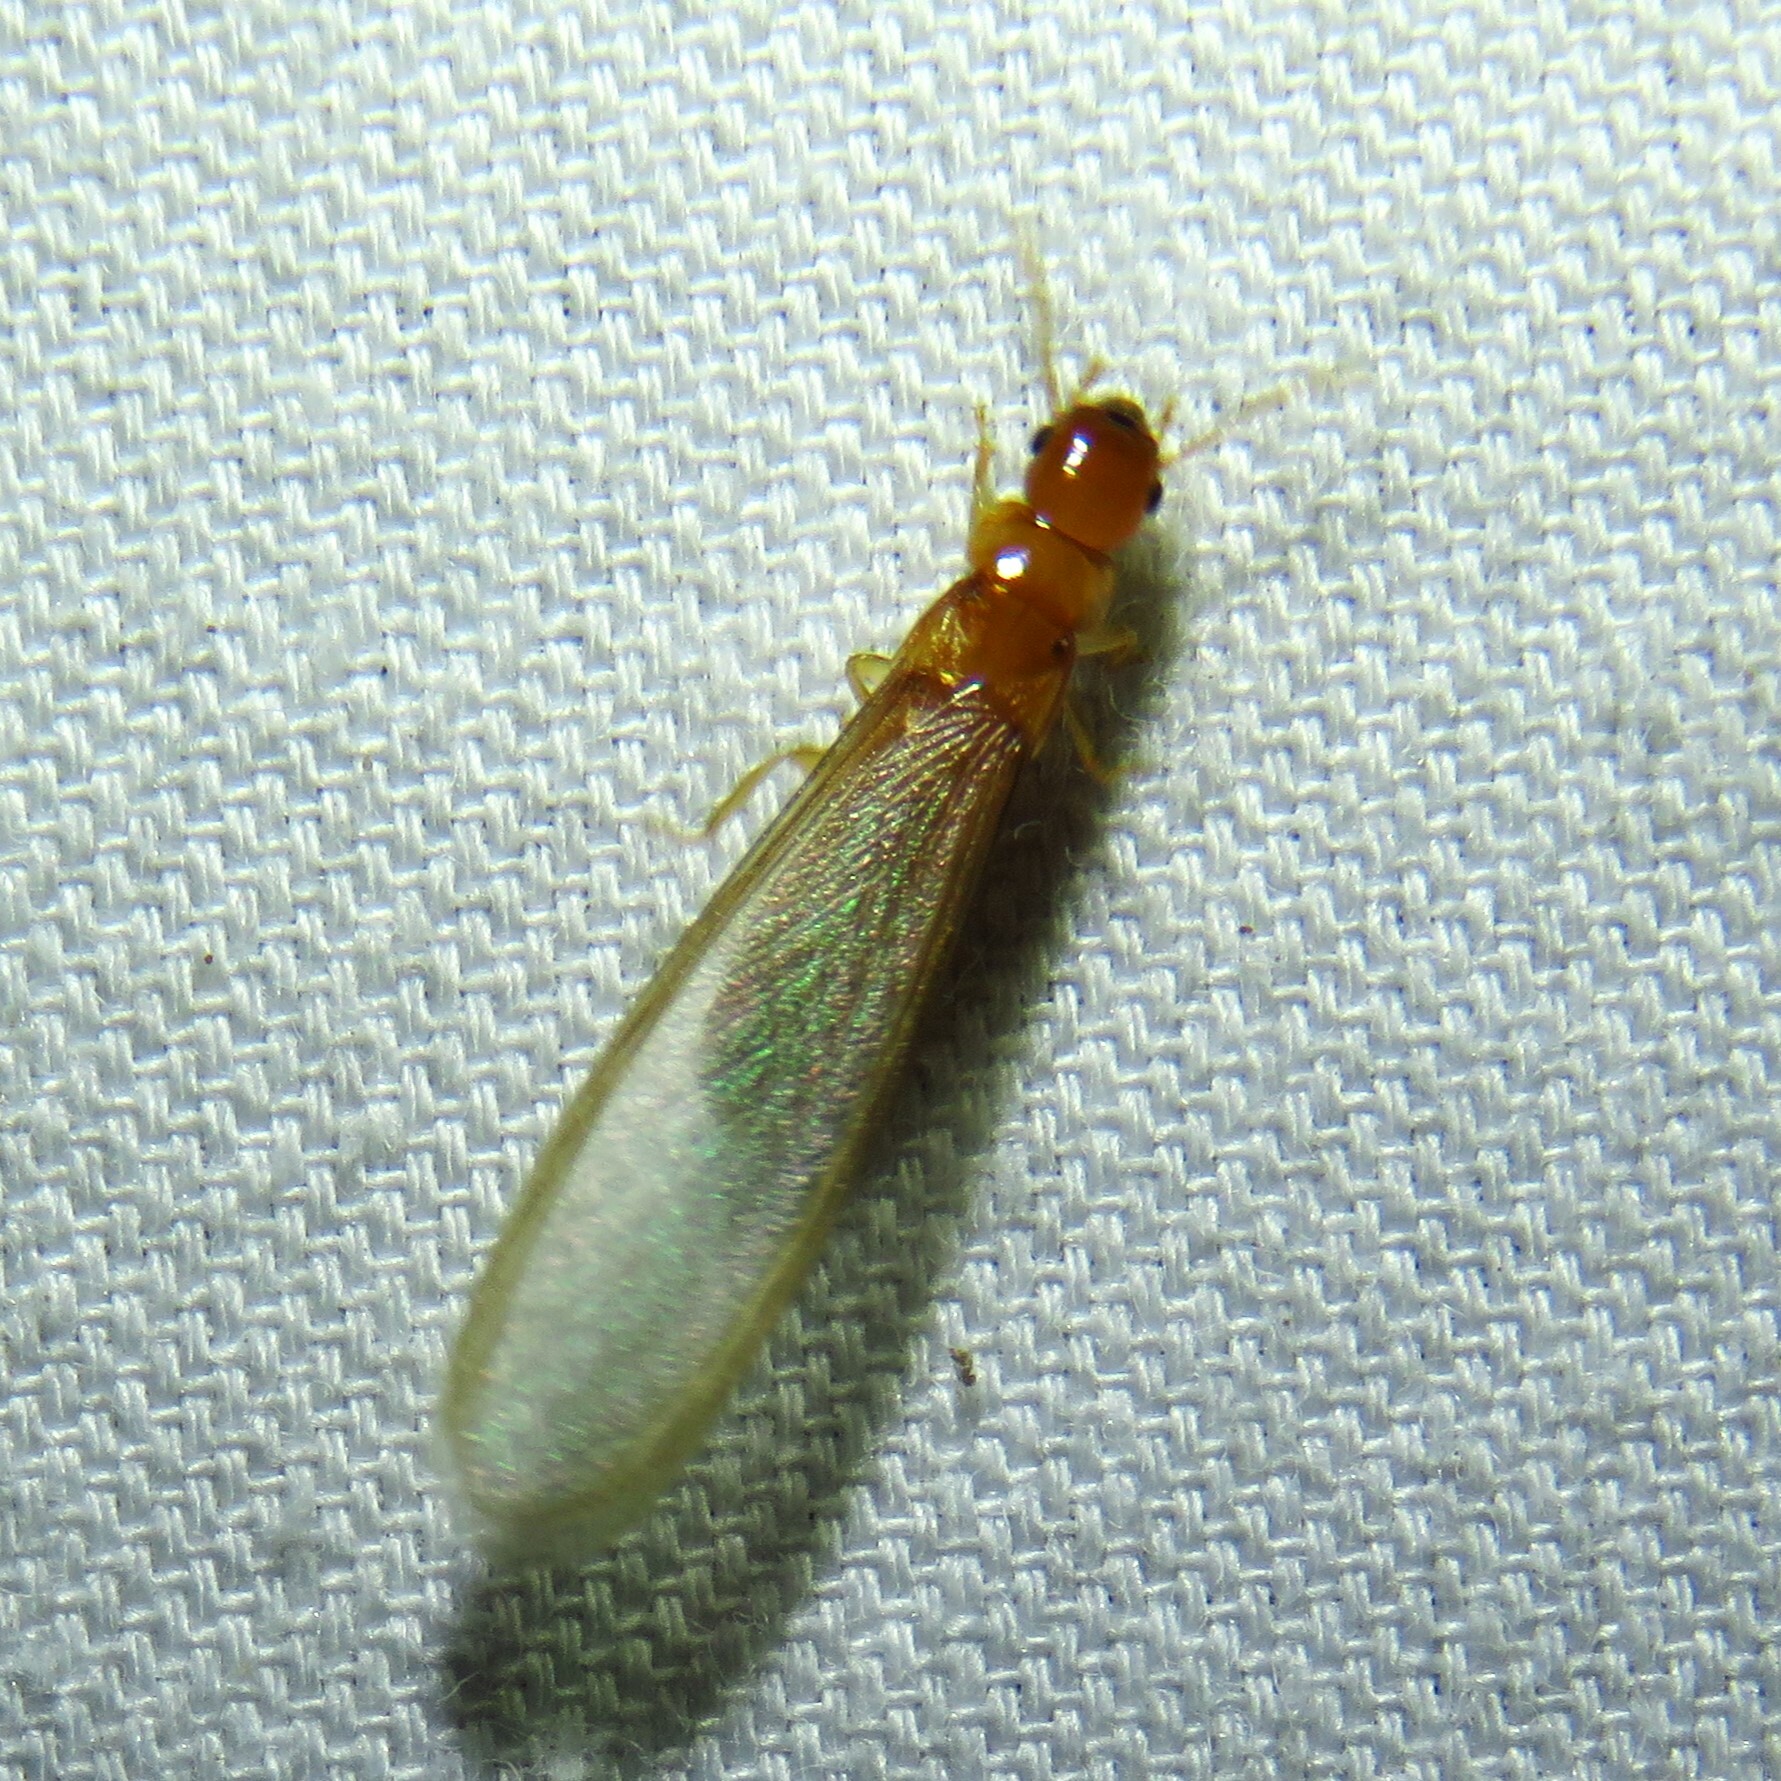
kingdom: Animalia
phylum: Arthropoda
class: Insecta
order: Blattodea
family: Kalotermitidae
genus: Incisitermes
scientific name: Incisitermes snyderi
